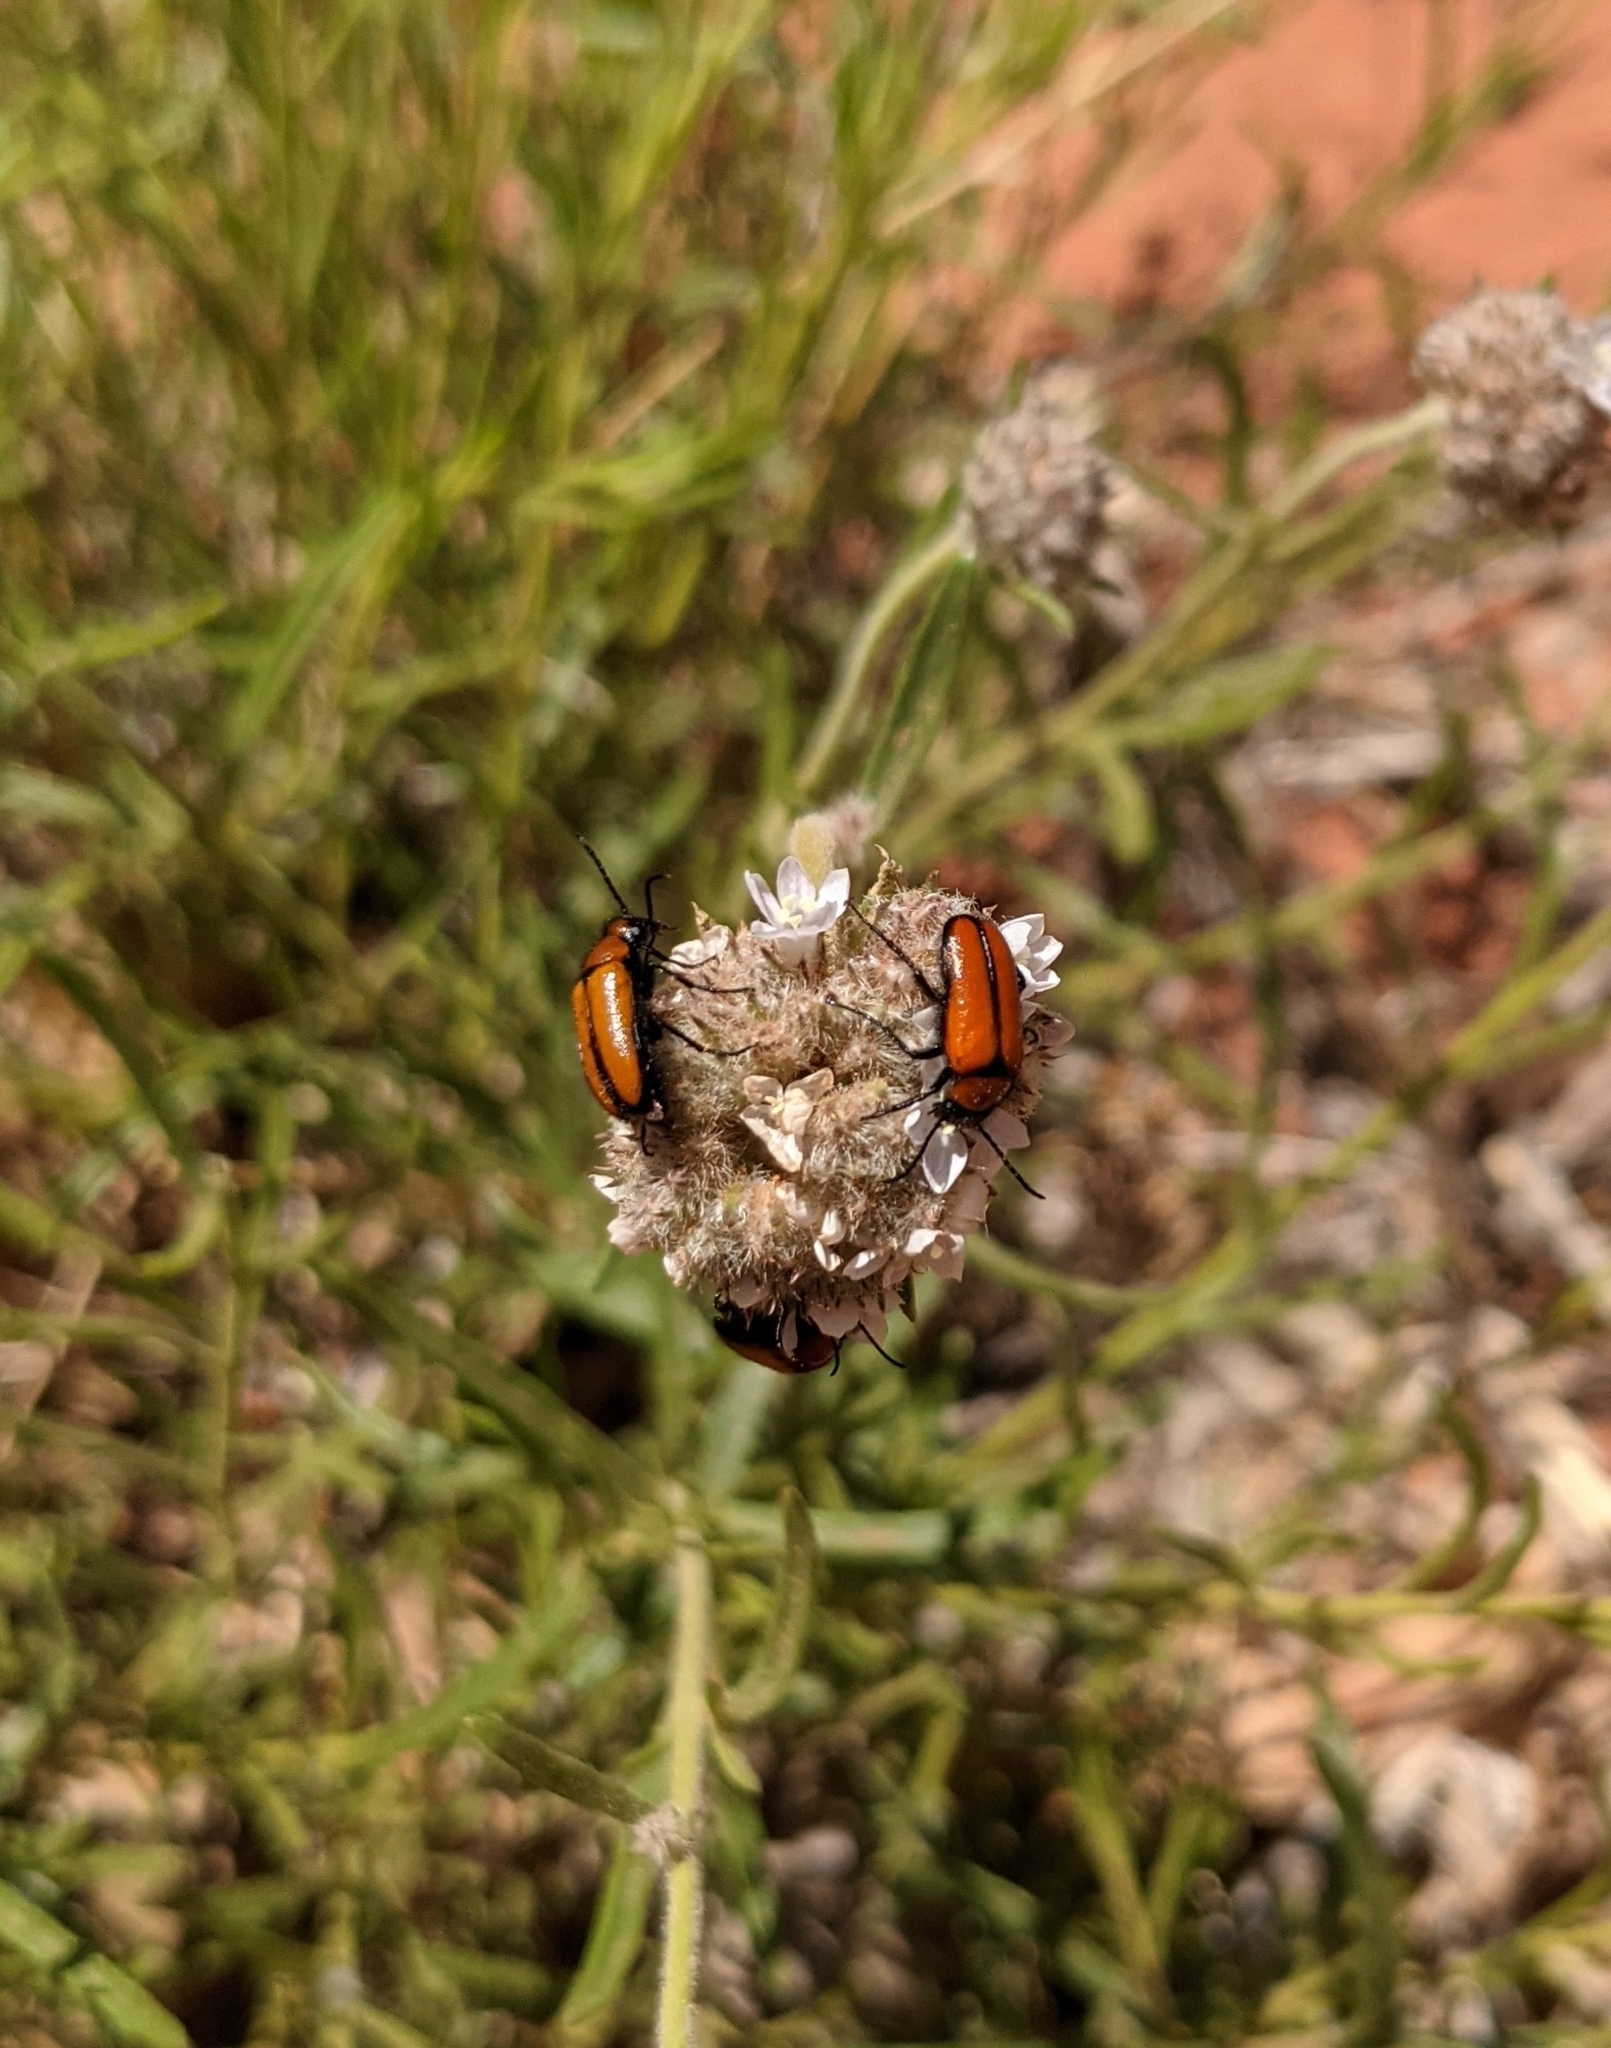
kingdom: Animalia
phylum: Arthropoda
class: Insecta
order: Coleoptera
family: Meloidae
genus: Nemognatha
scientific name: Nemognatha scutellaris
